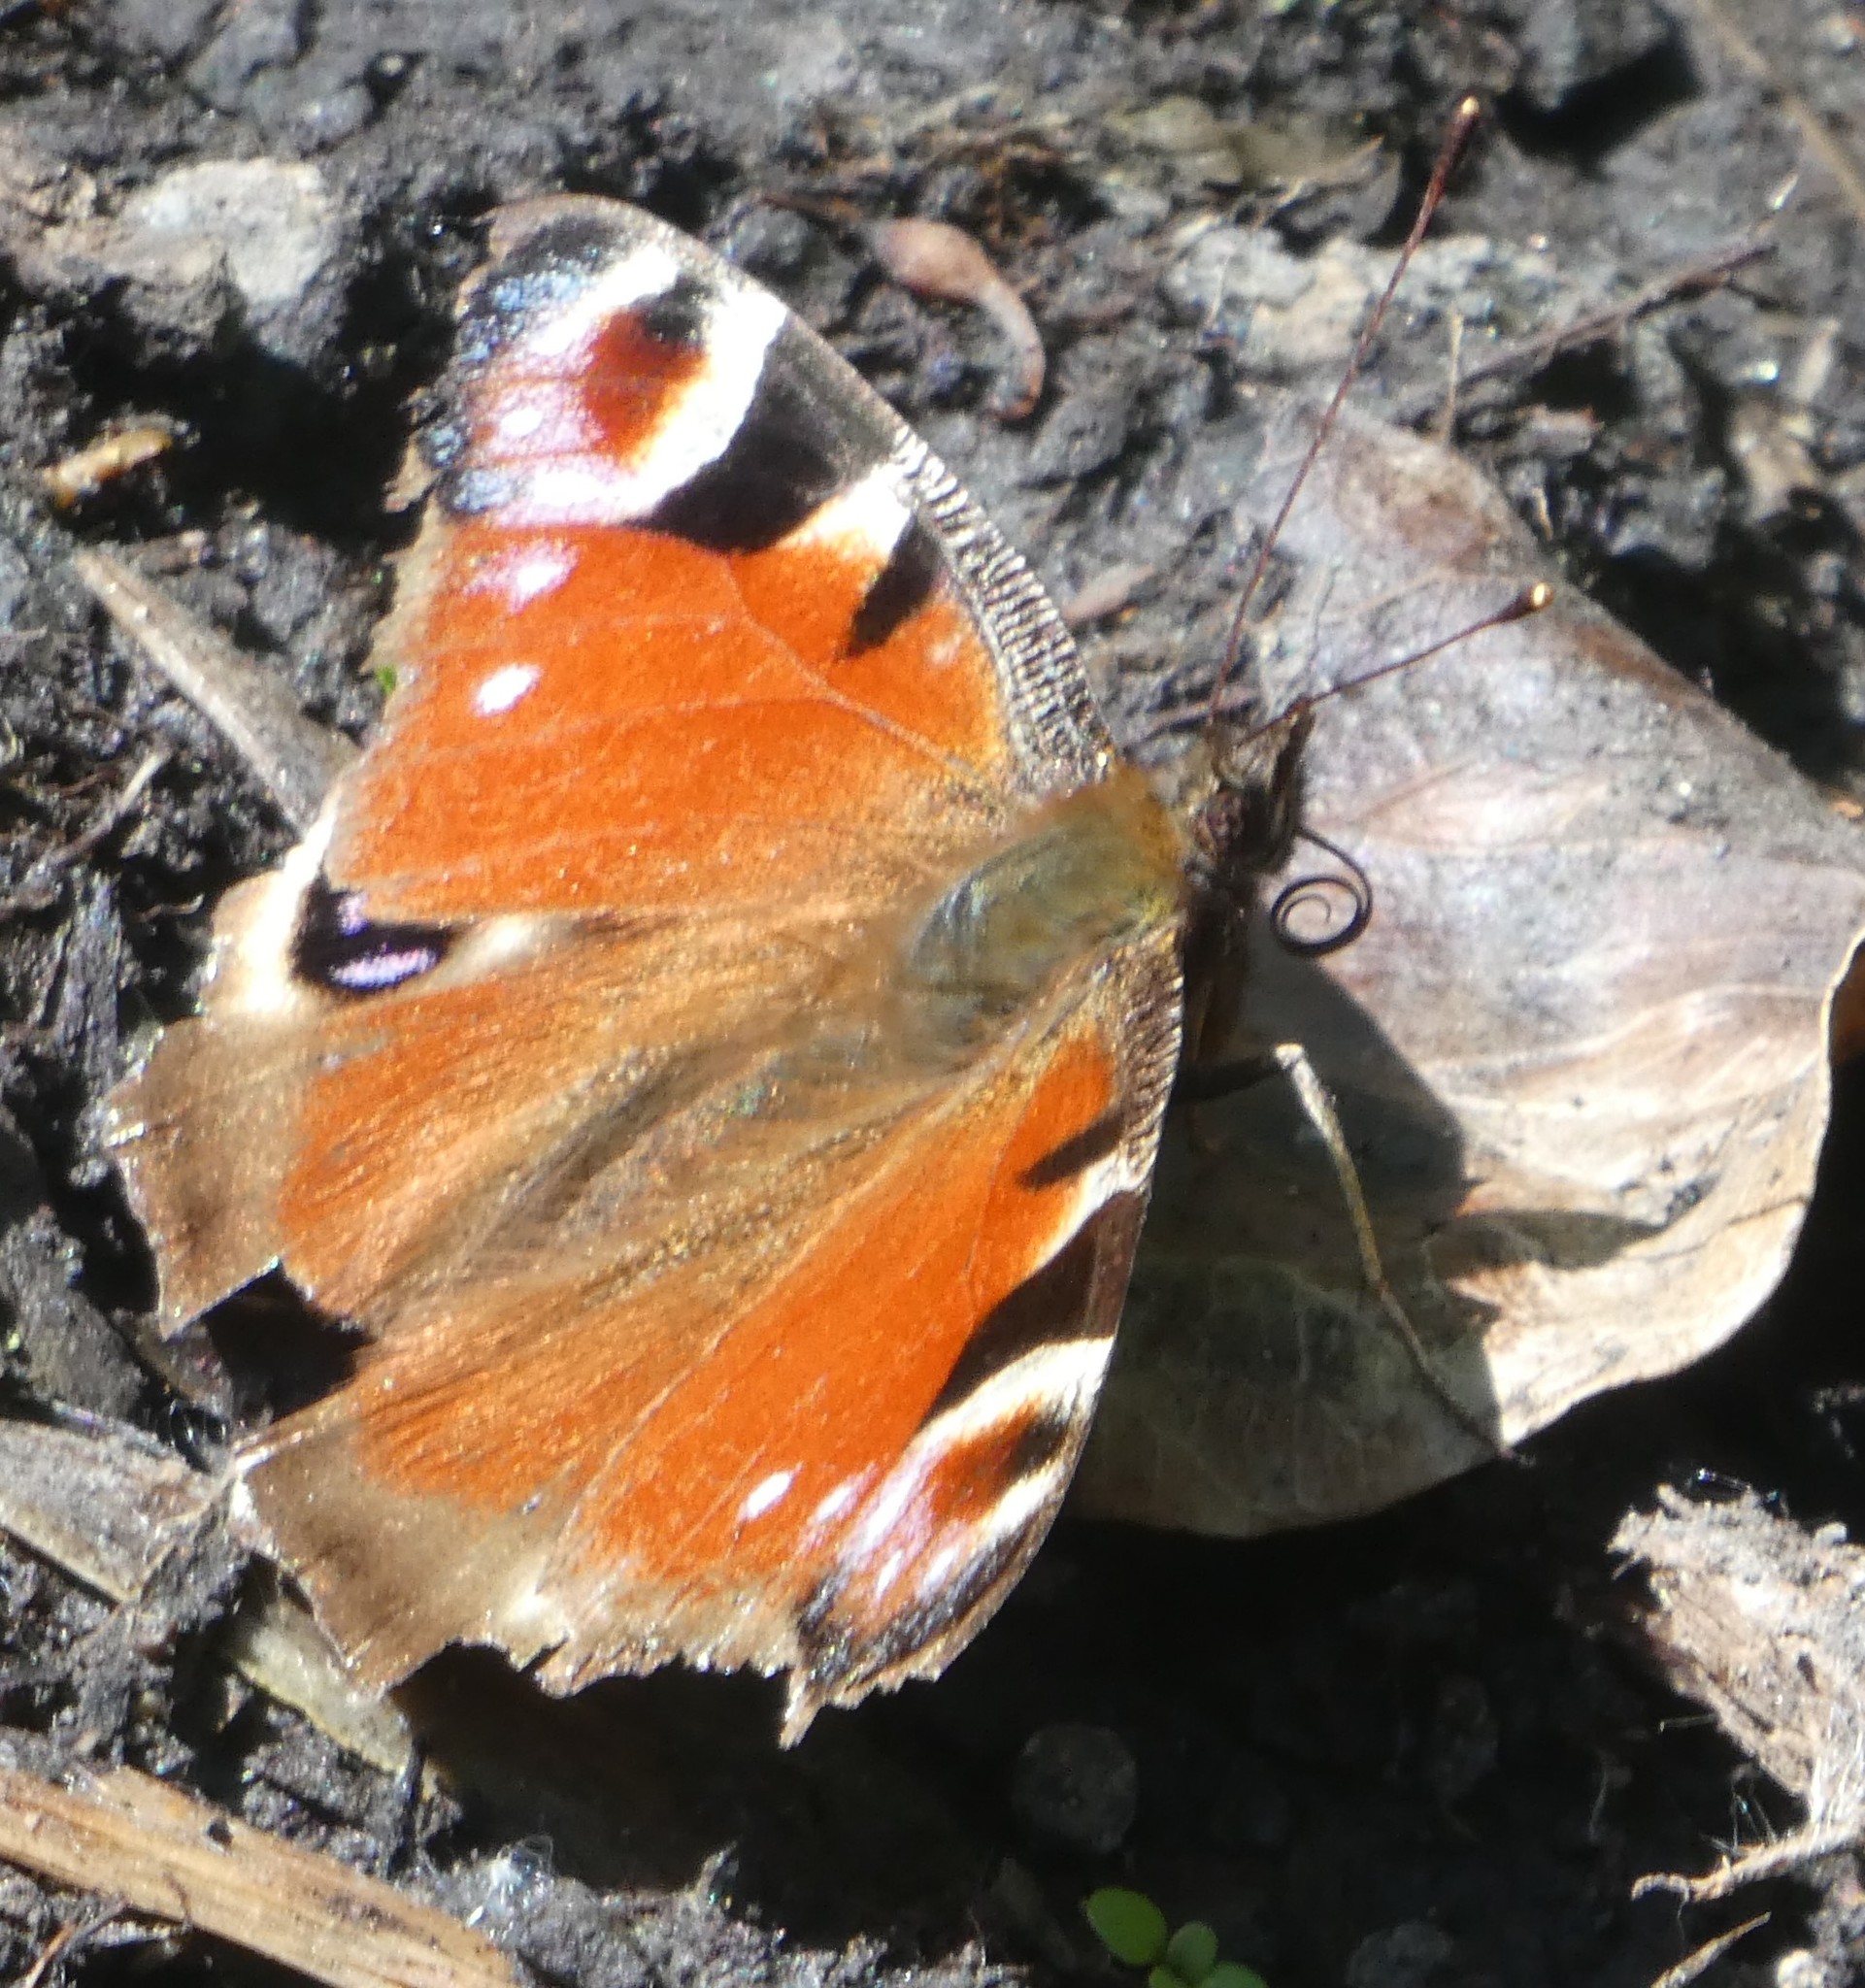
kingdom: Animalia
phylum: Arthropoda
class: Insecta
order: Lepidoptera
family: Nymphalidae
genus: Aglais
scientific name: Aglais io
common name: Peacock
